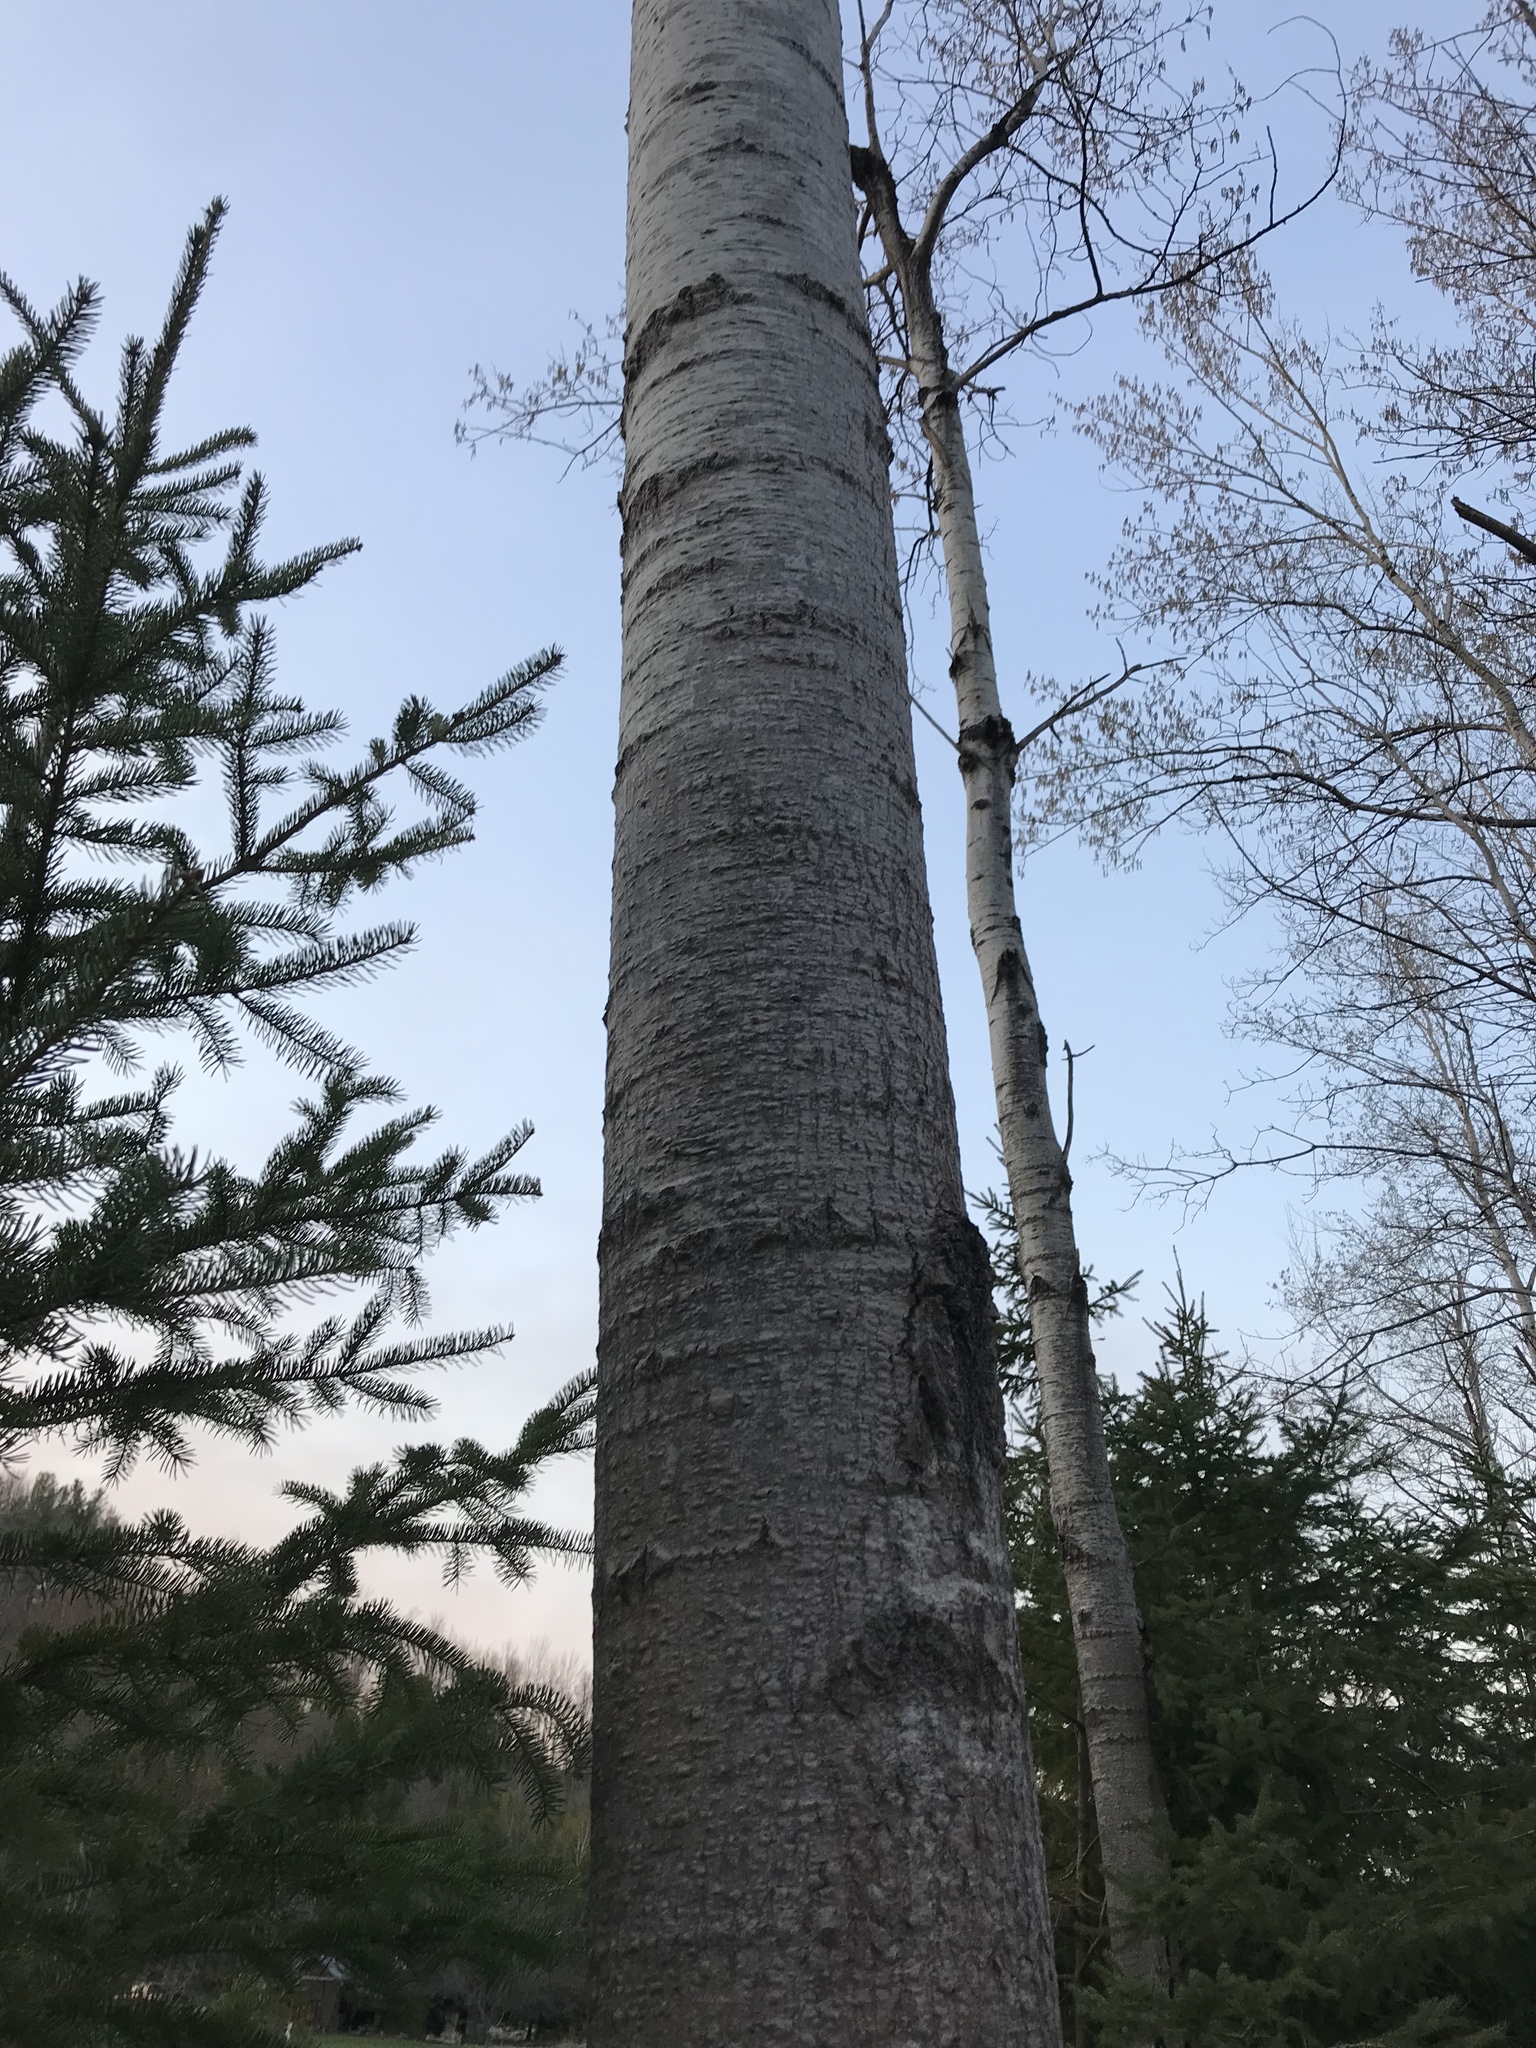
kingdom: Plantae
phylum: Tracheophyta
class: Magnoliopsida
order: Malpighiales
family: Salicaceae
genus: Populus
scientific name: Populus tremuloides
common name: Quaking aspen
